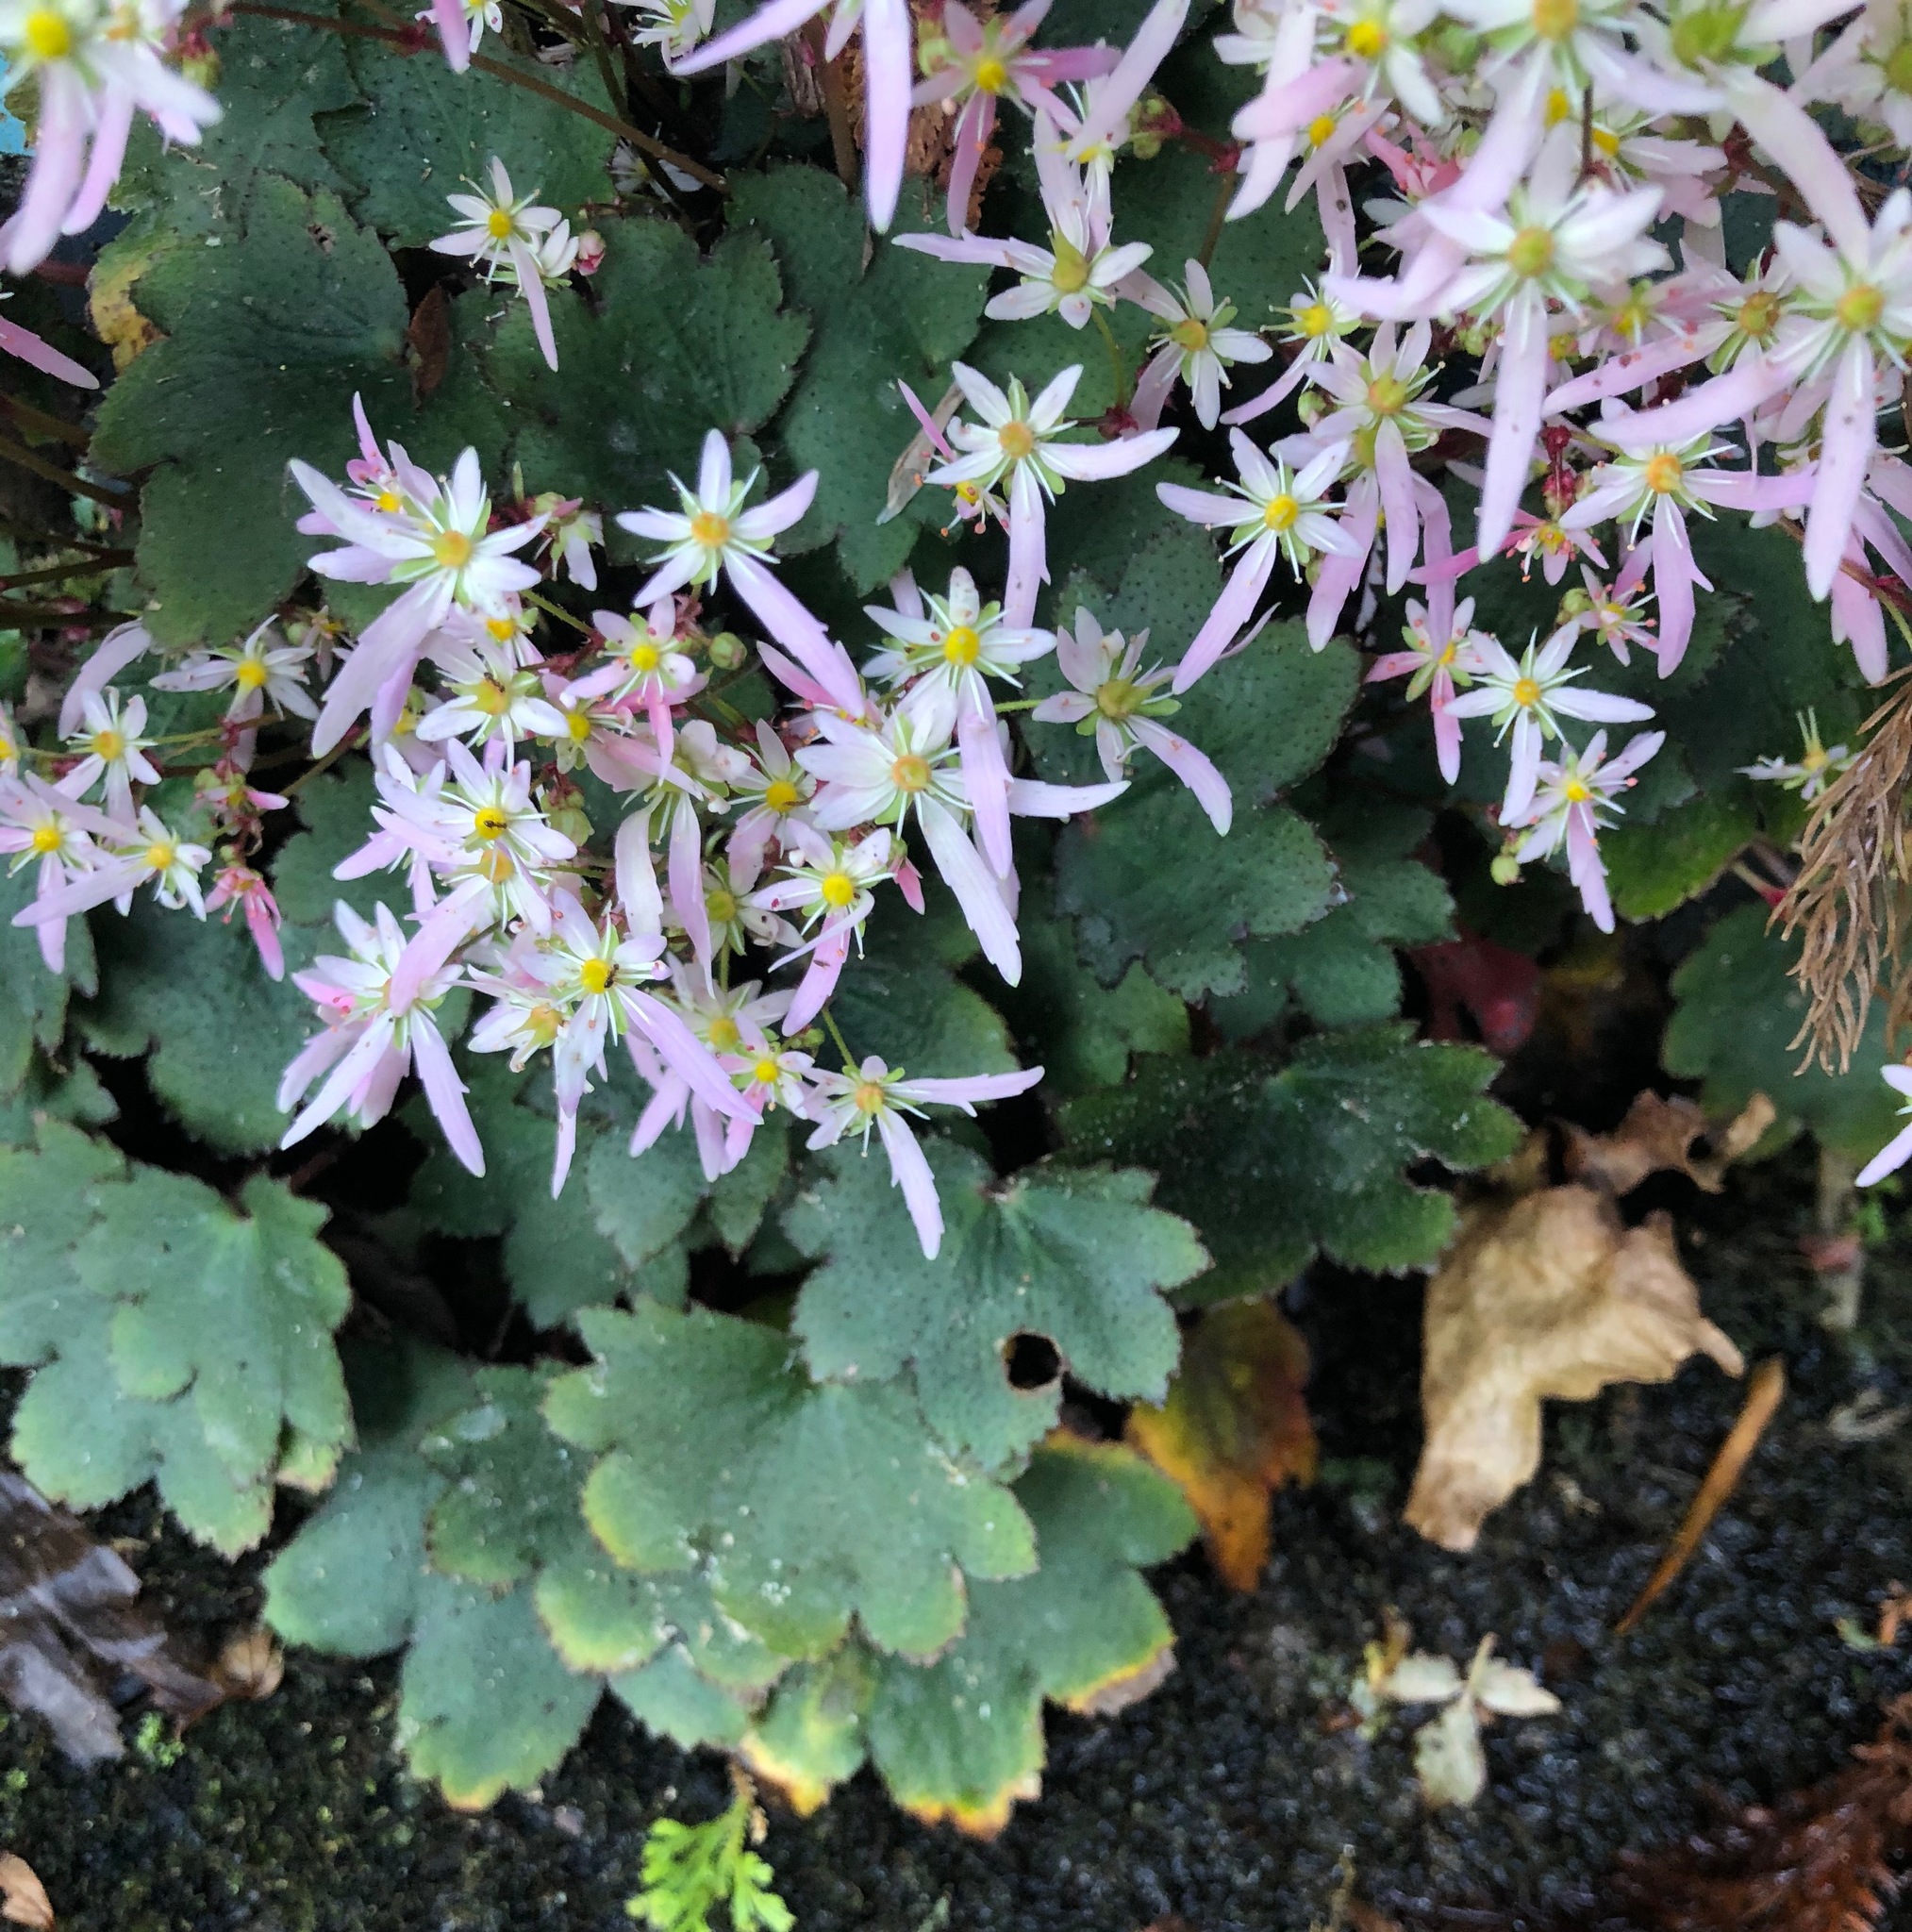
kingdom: Plantae
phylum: Tracheophyta
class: Magnoliopsida
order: Saxifragales
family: Saxifragaceae
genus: Saxifraga
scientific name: Saxifraga fortunei
